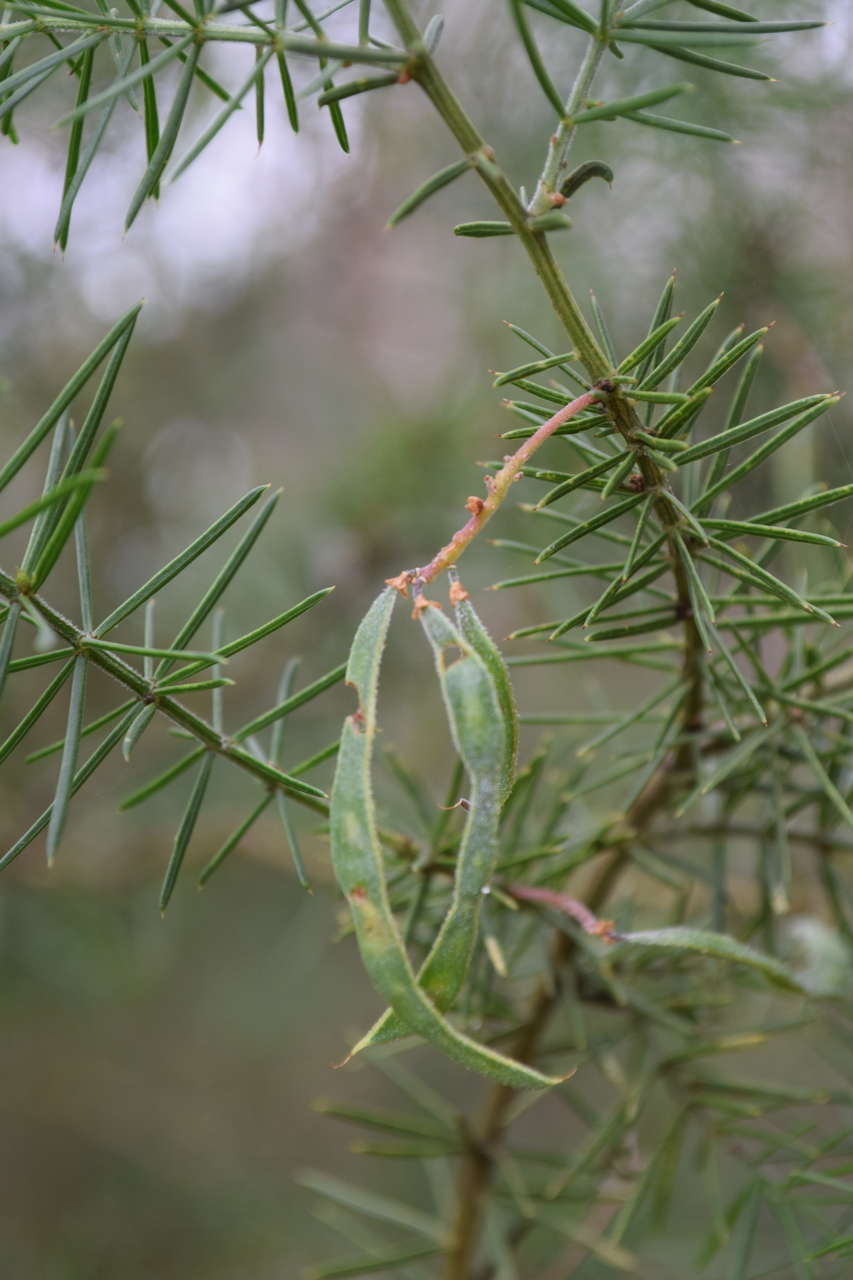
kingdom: Plantae
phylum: Tracheophyta
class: Magnoliopsida
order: Fabales
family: Fabaceae
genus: Acacia
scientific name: Acacia verticillata
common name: Prickly moses
